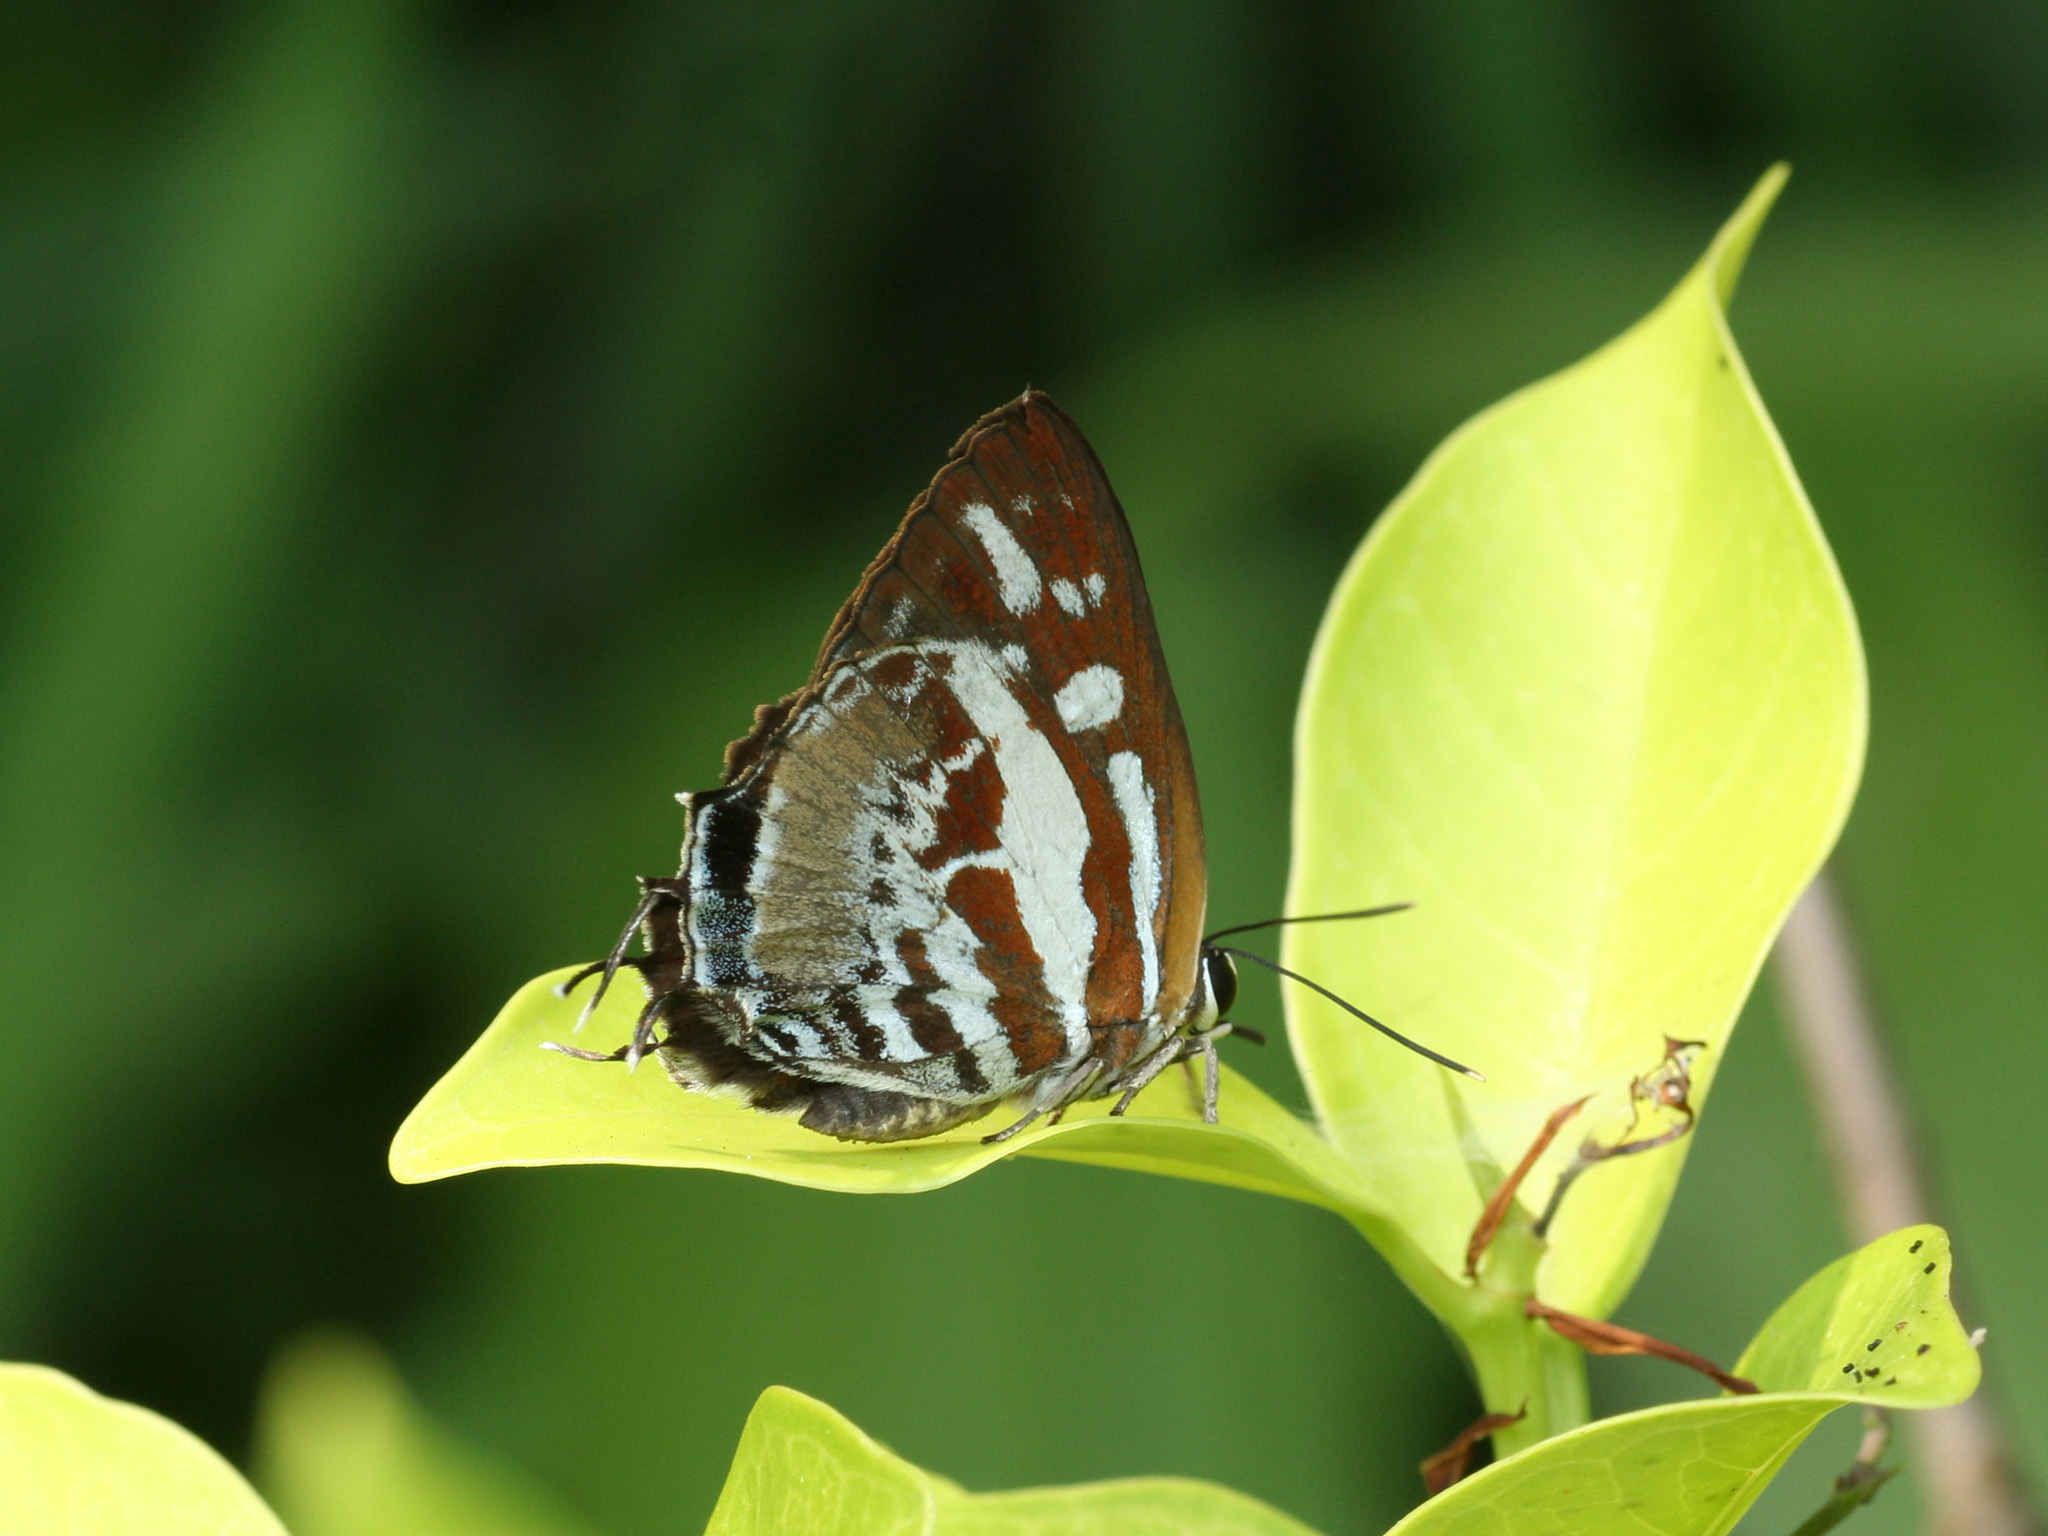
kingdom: Animalia
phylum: Arthropoda
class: Insecta
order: Lepidoptera
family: Lycaenidae
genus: Iraota
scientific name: Iraota rochana
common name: Scarce silverstreak blue
